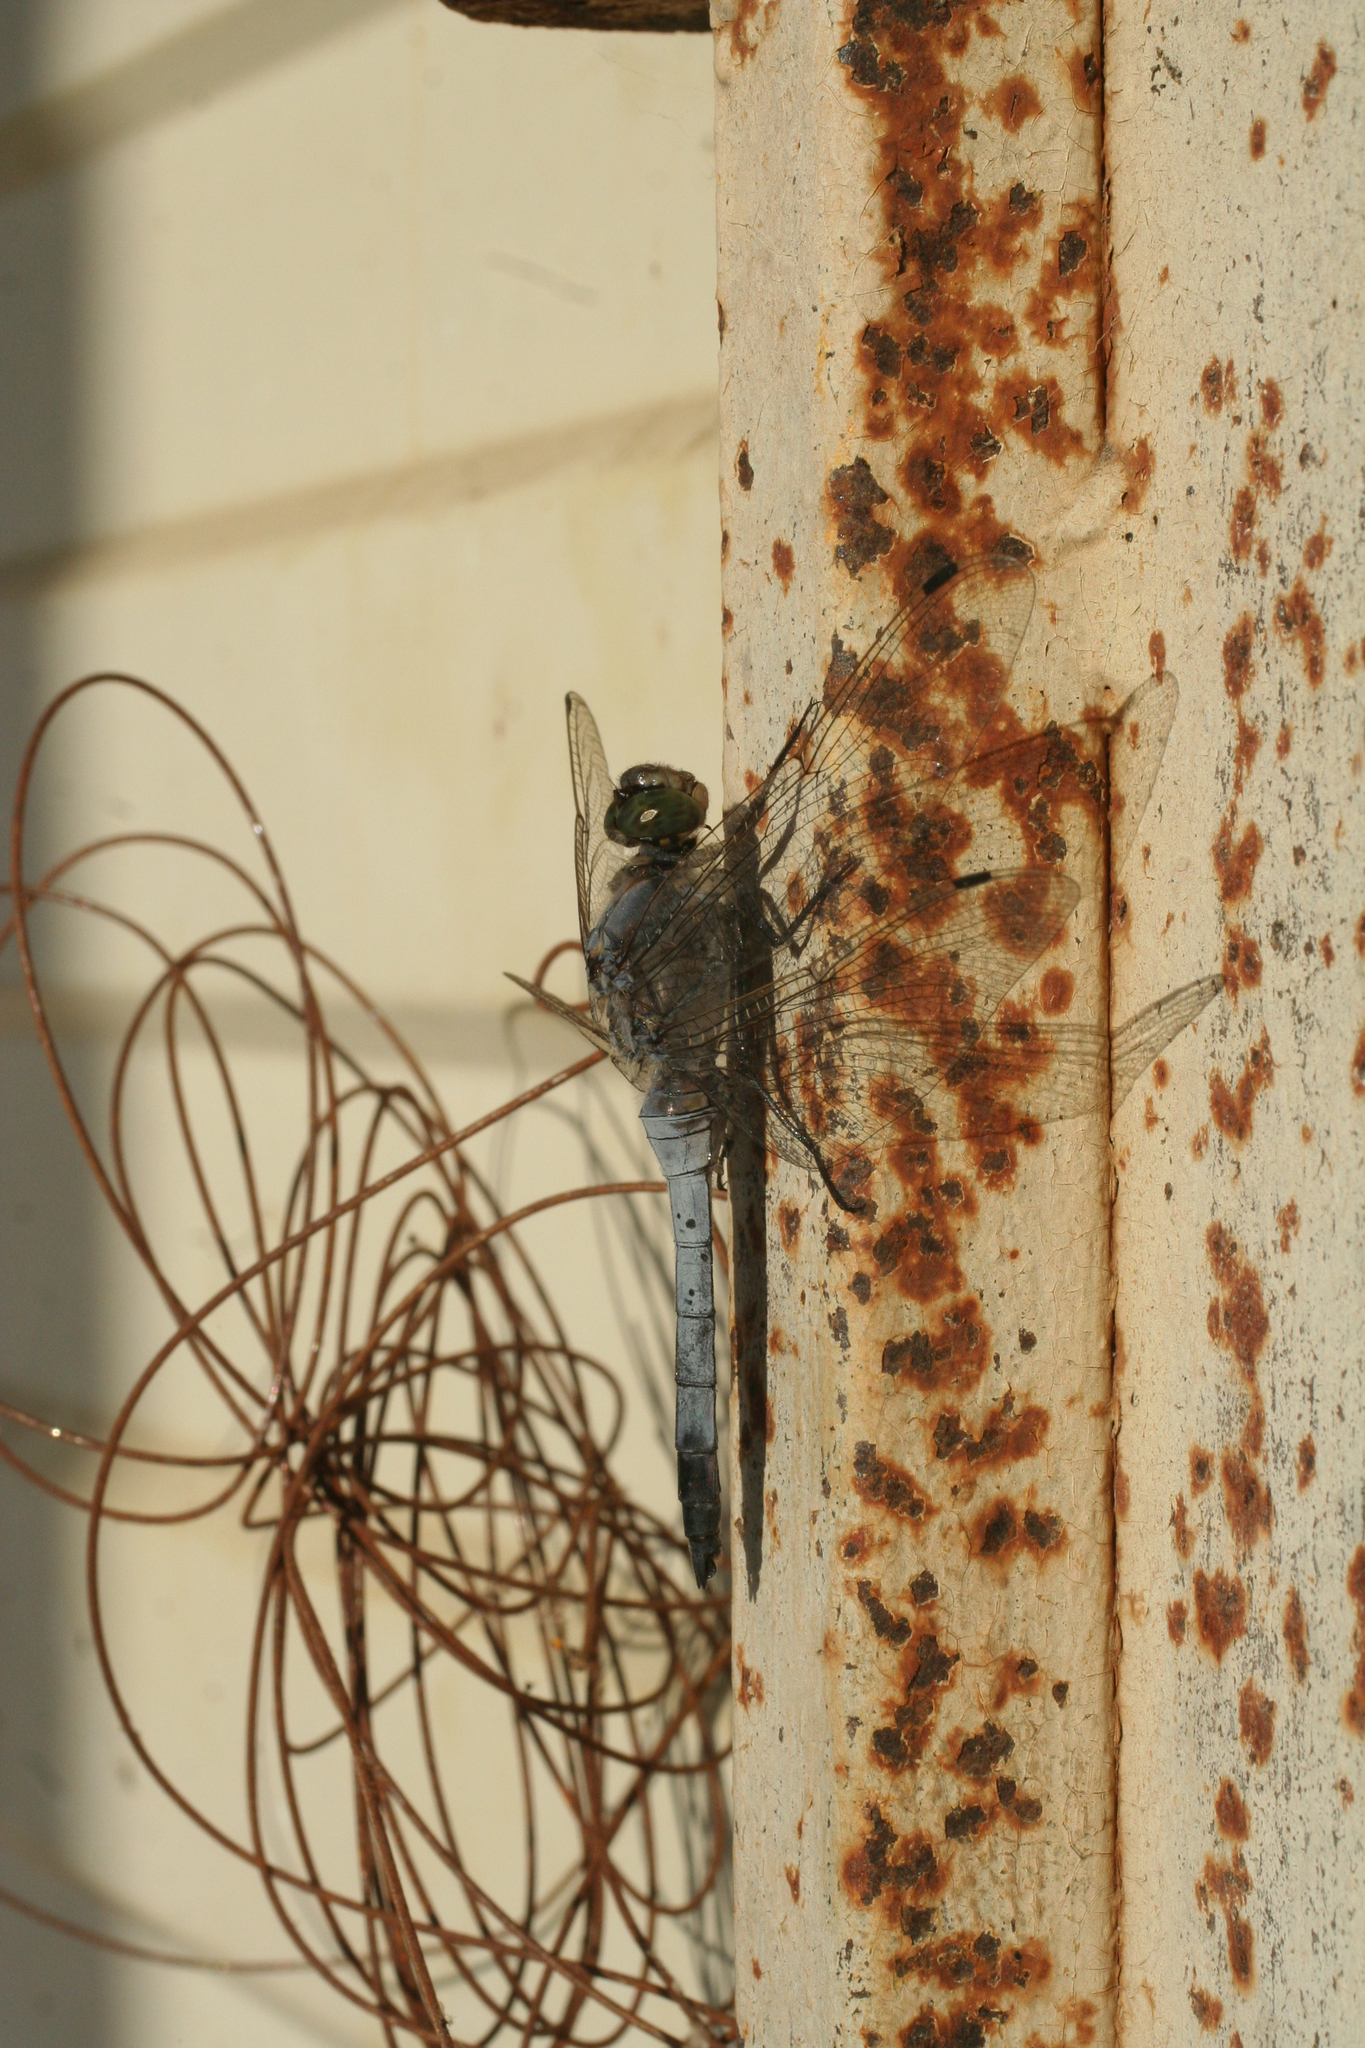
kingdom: Animalia
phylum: Arthropoda
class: Insecta
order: Odonata
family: Libellulidae
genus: Orthetrum
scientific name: Orthetrum cancellatum
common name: Black-tailed skimmer
